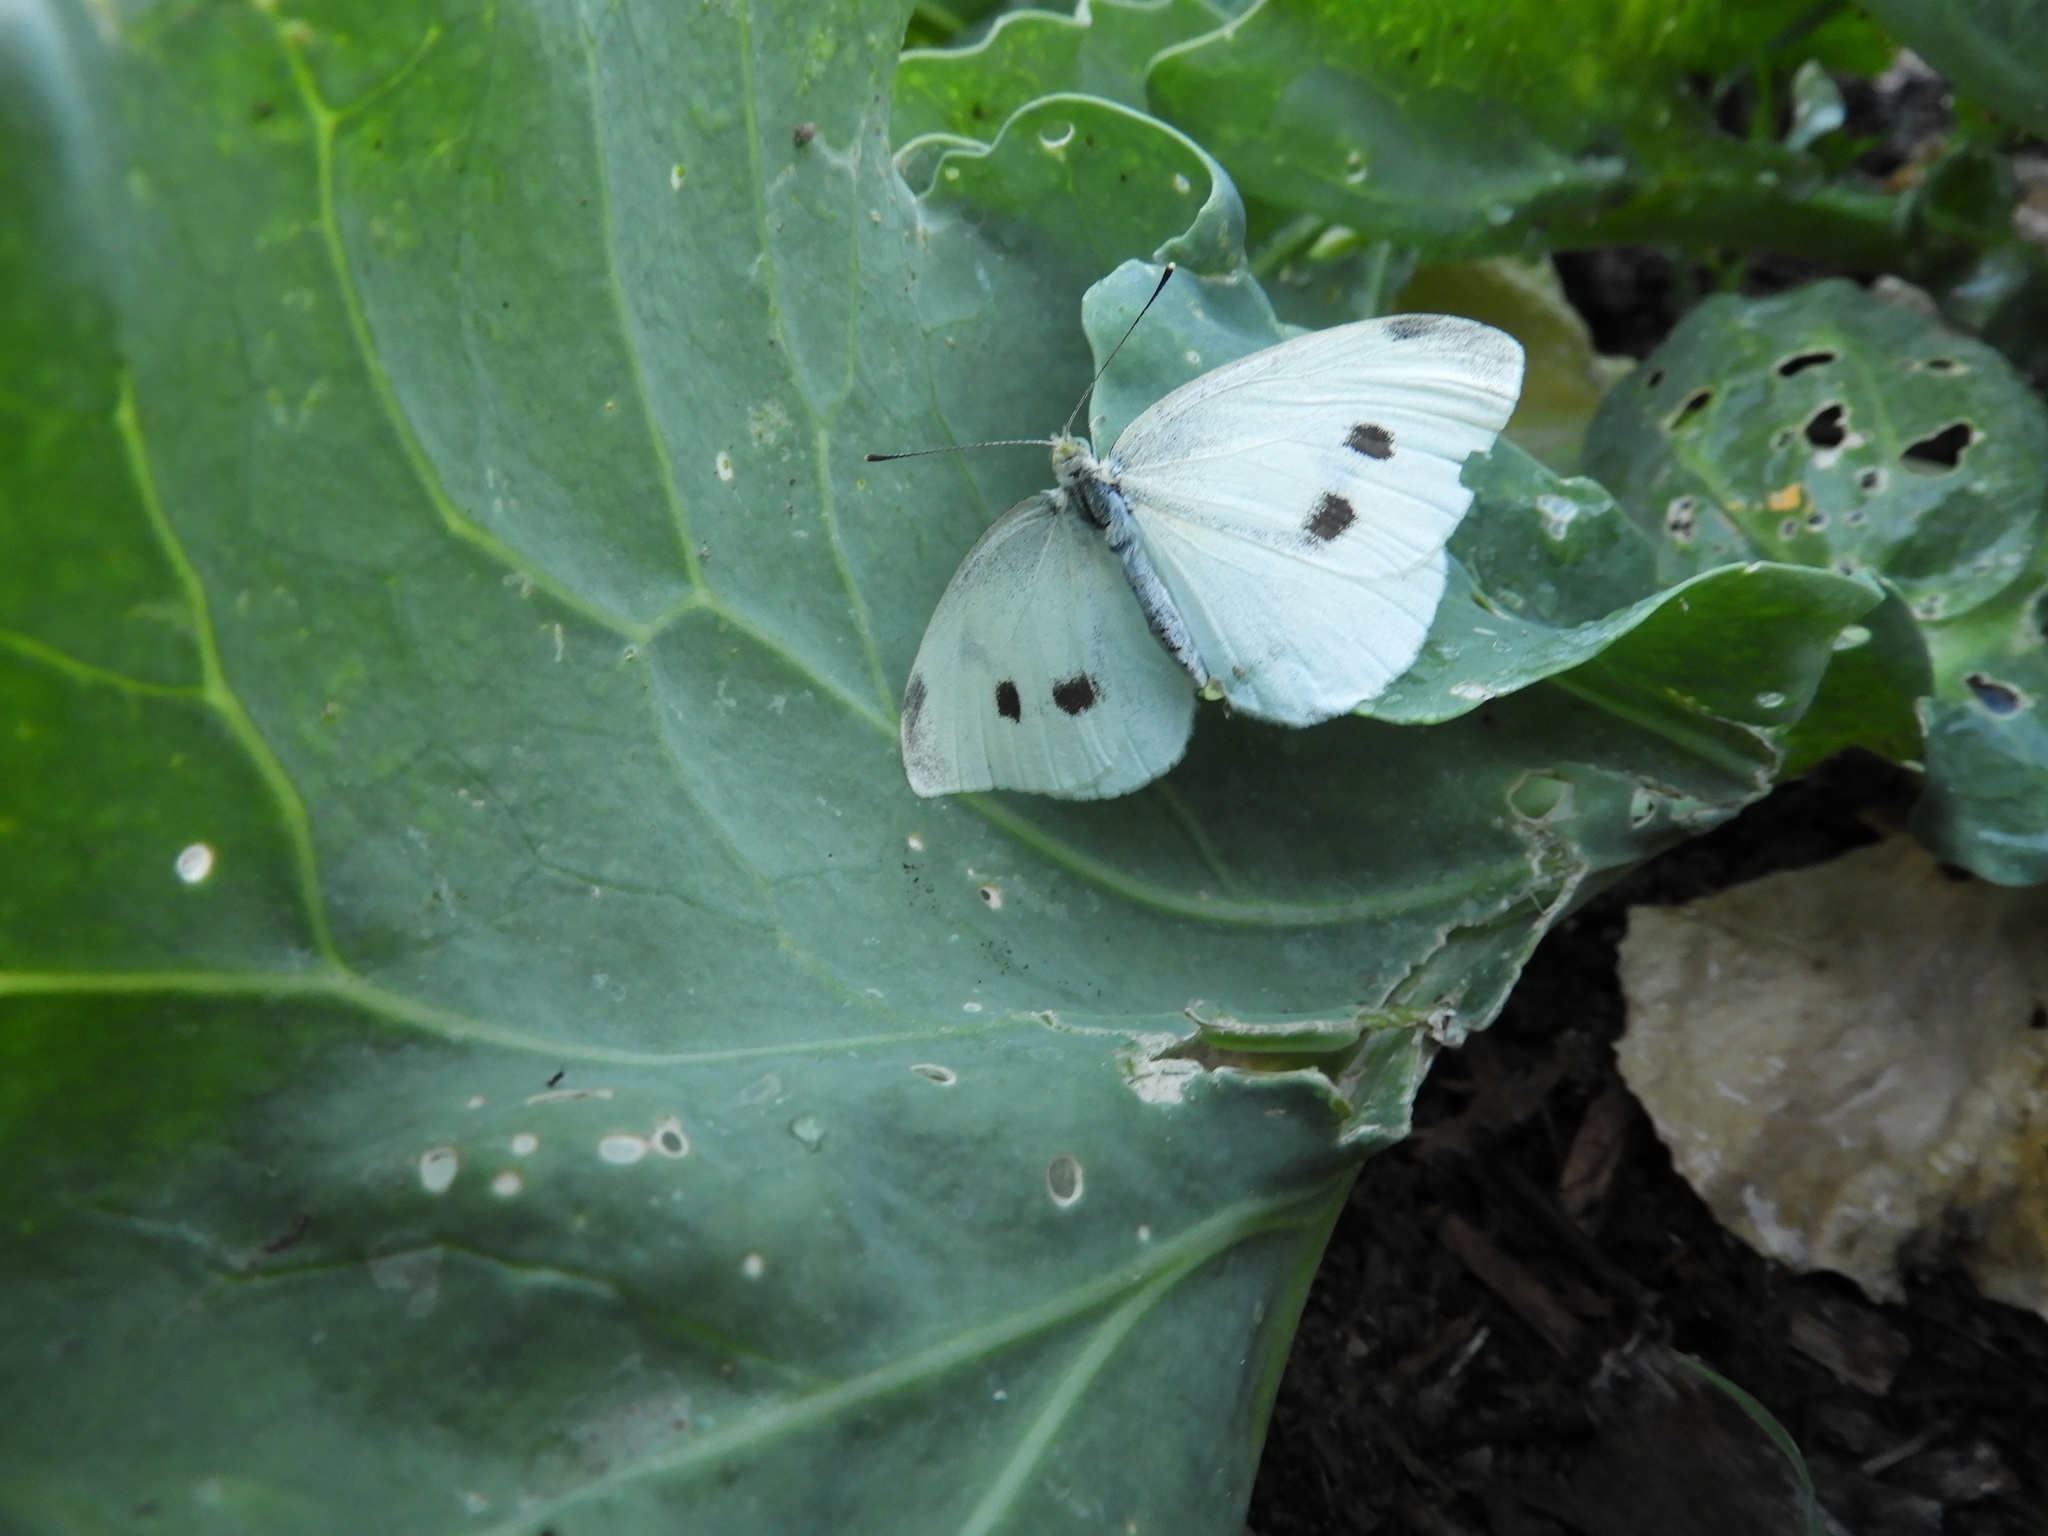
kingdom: Animalia
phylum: Arthropoda
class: Insecta
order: Lepidoptera
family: Pieridae
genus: Pieris
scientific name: Pieris rapae
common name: Small white
